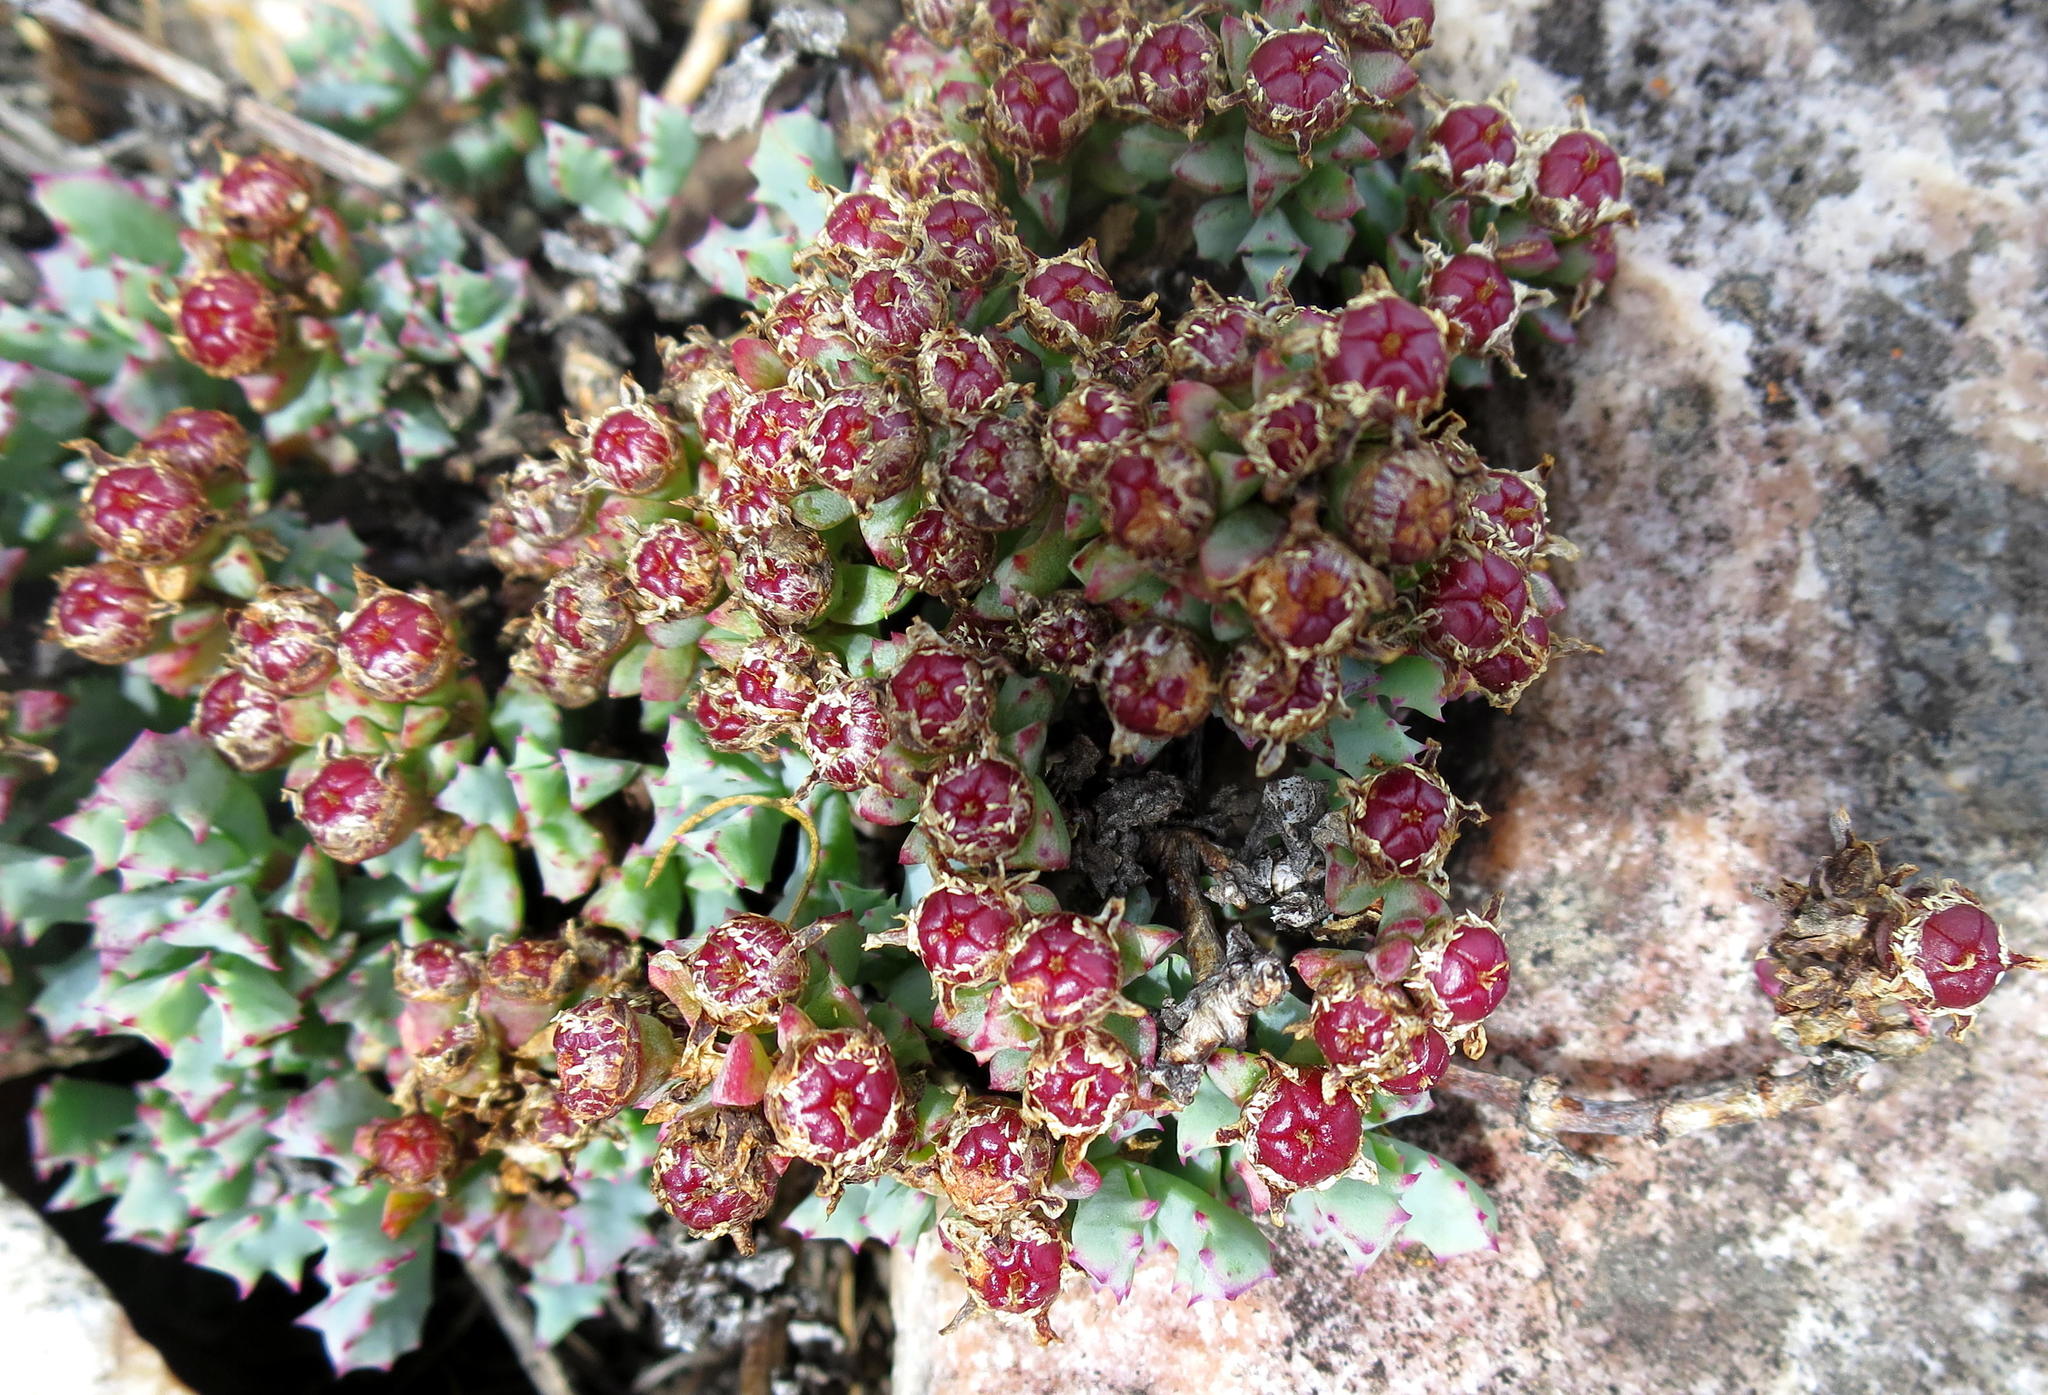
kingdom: Plantae
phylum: Tracheophyta
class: Magnoliopsida
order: Caryophyllales
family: Aizoaceae
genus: Oscularia
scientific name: Oscularia deltoides
